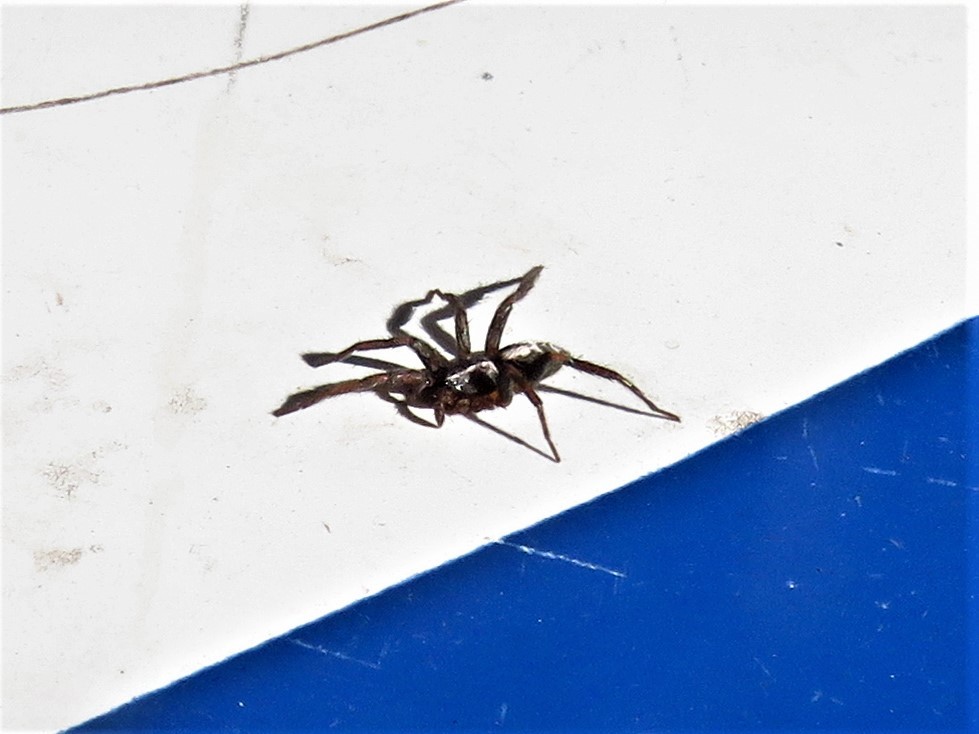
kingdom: Animalia
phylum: Arthropoda
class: Arachnida
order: Araneae
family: Gnaphosidae
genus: Herpyllus
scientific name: Herpyllus ecclesiasticus
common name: Eastern parson spider
